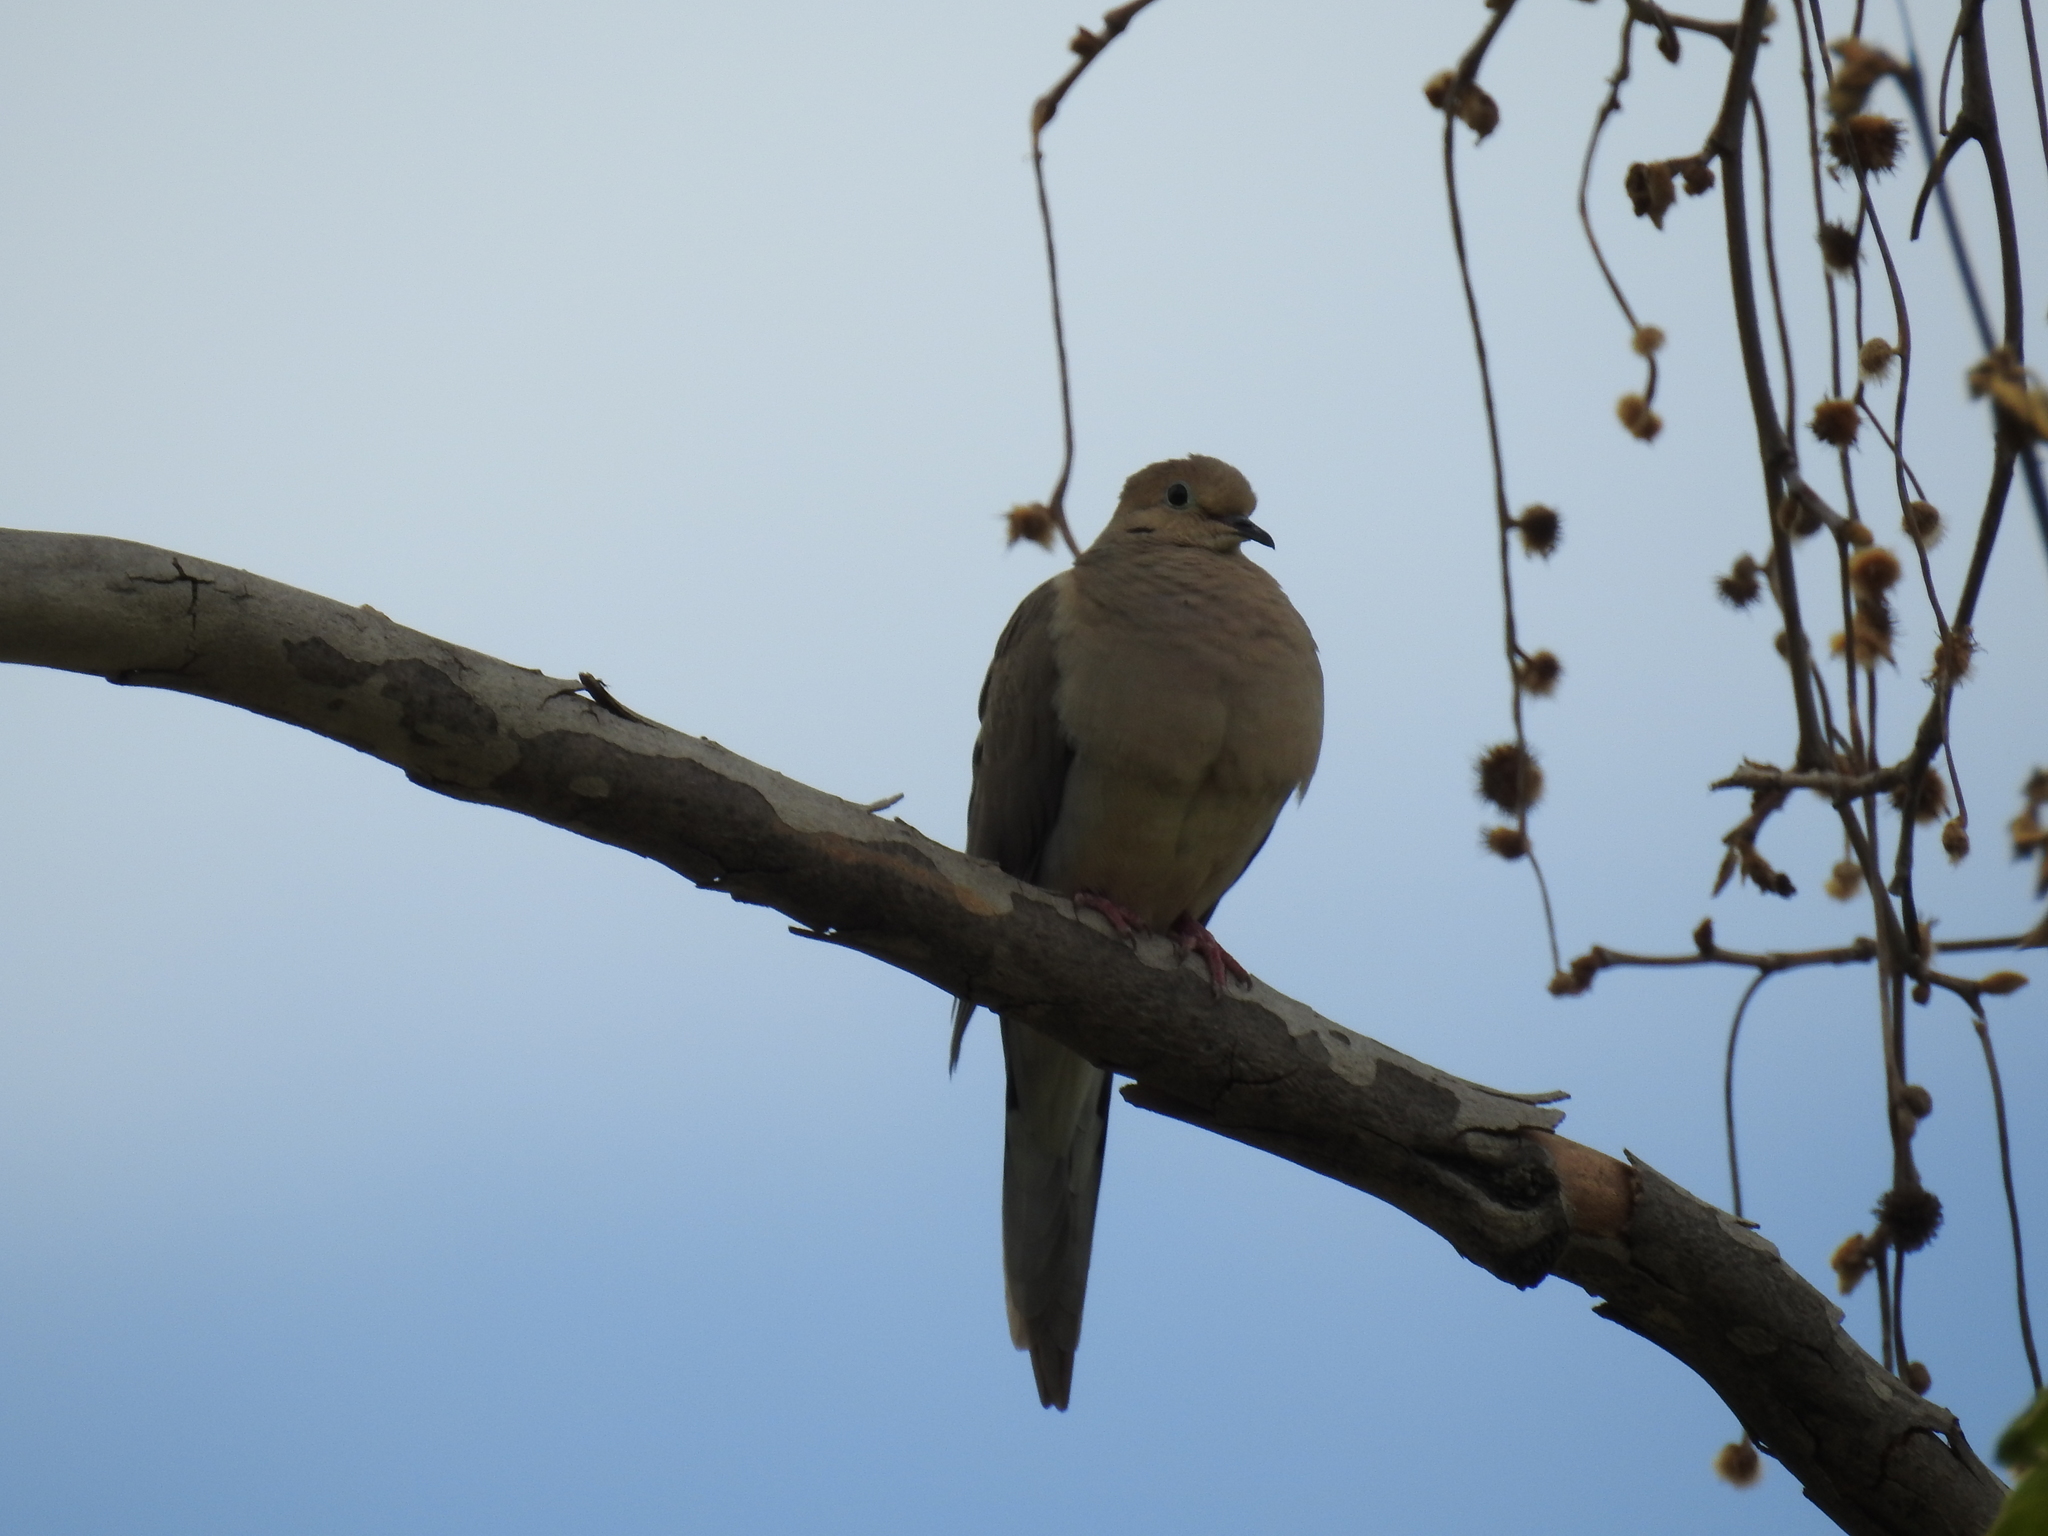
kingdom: Animalia
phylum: Chordata
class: Aves
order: Columbiformes
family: Columbidae
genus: Zenaida
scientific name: Zenaida macroura
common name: Mourning dove
